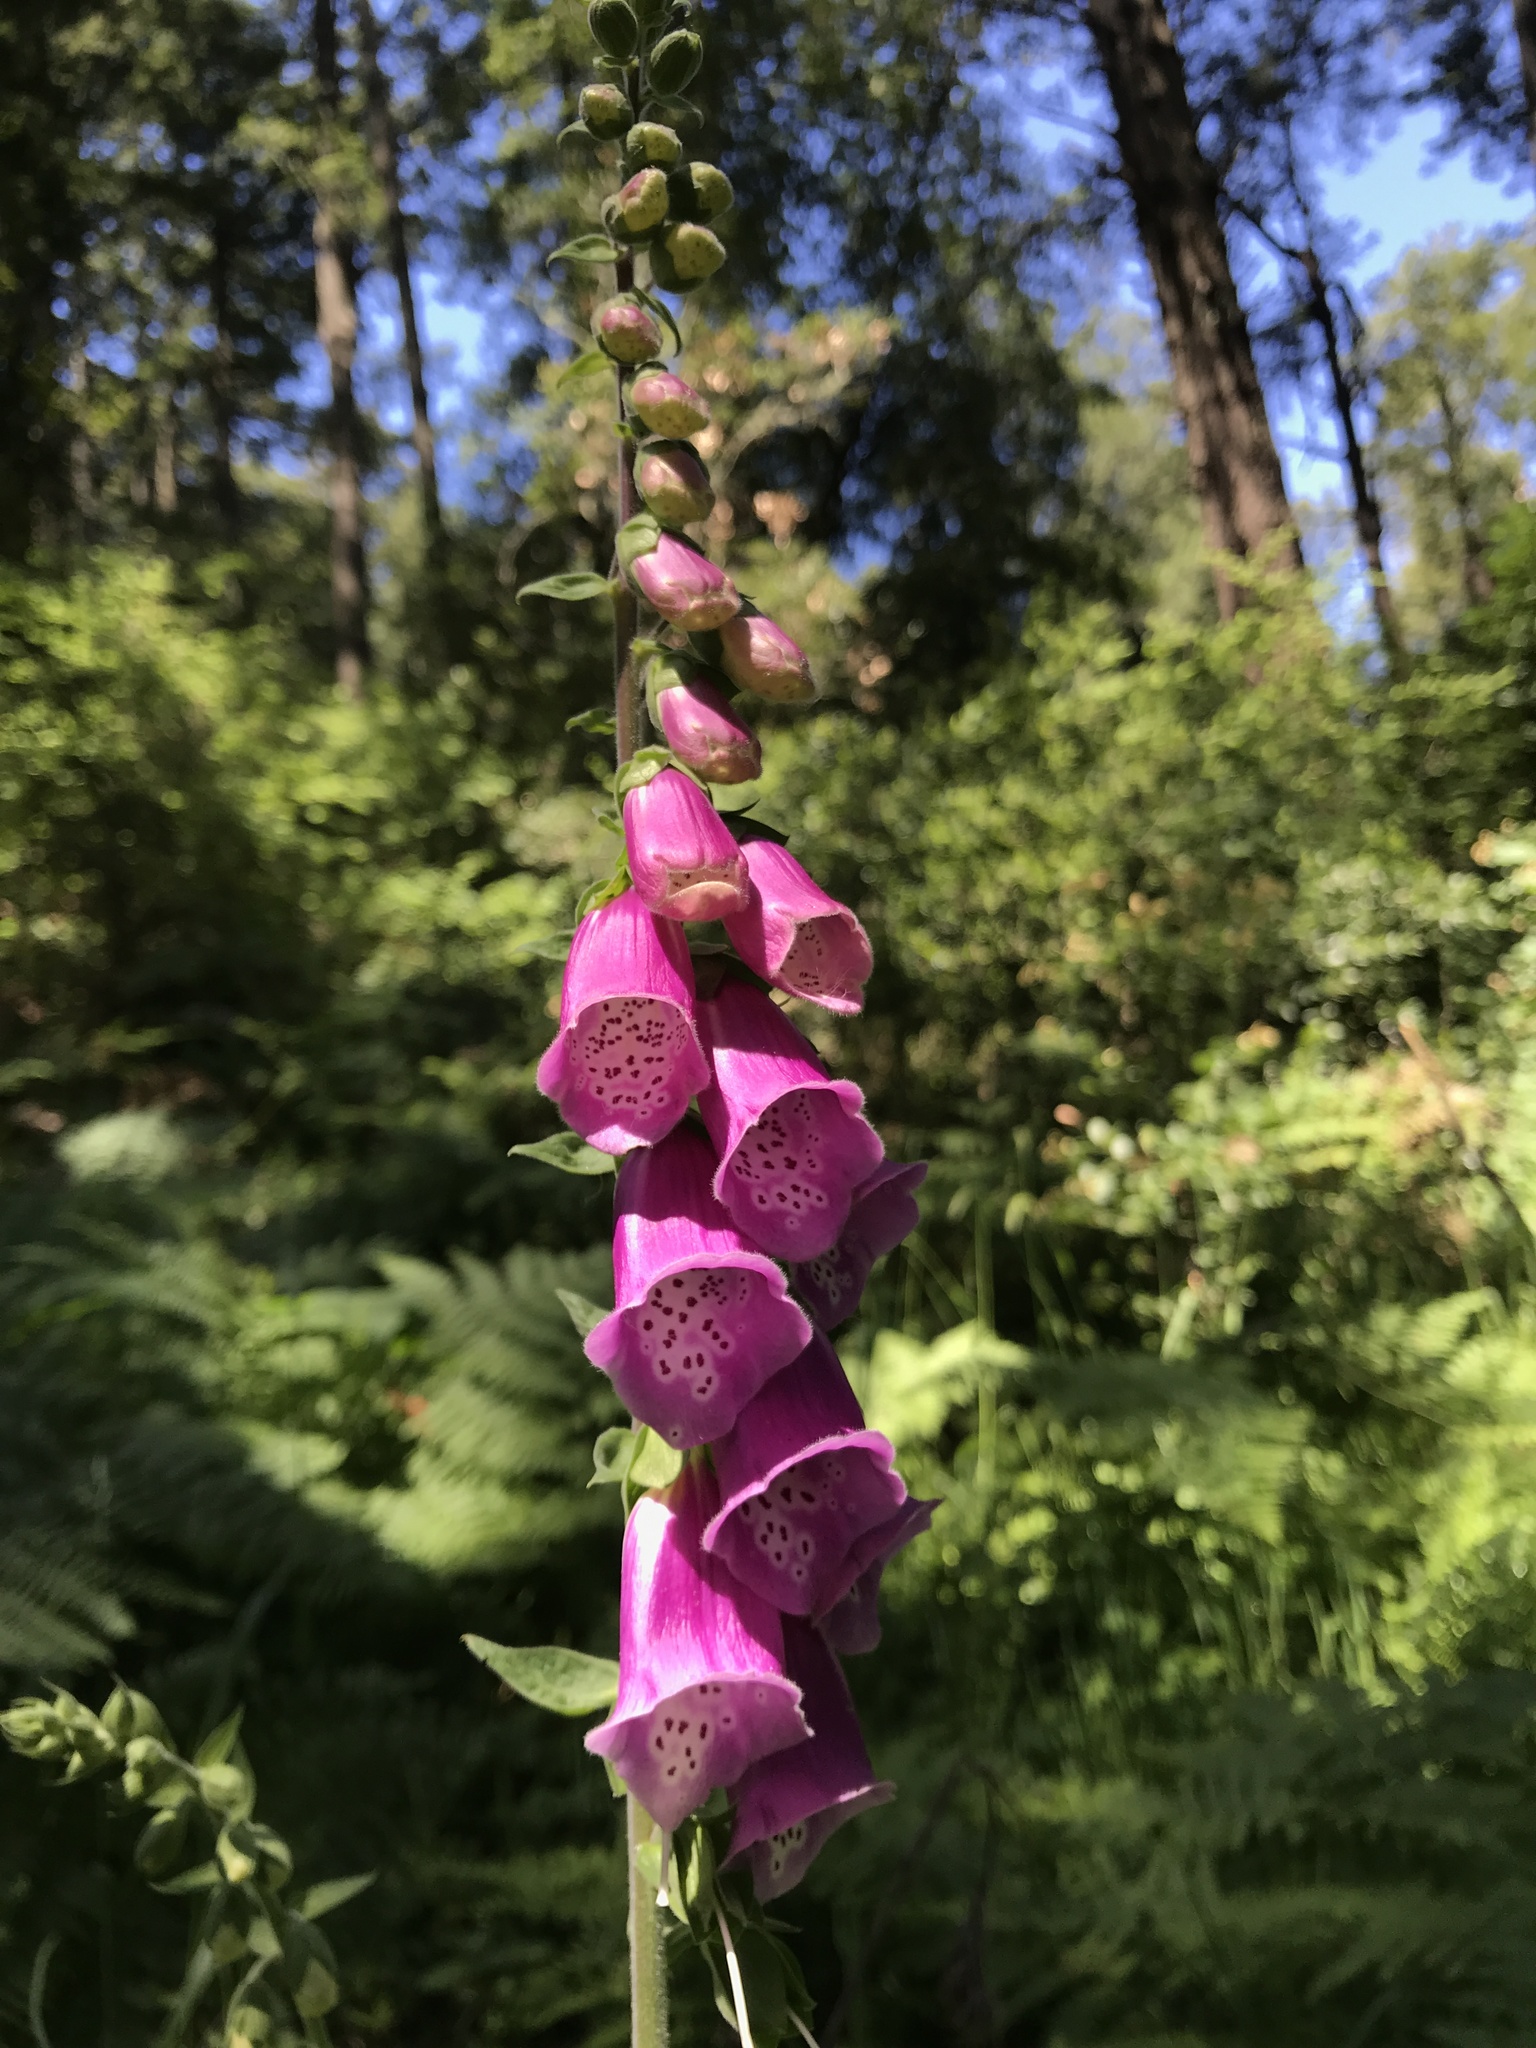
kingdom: Plantae
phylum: Tracheophyta
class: Magnoliopsida
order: Lamiales
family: Plantaginaceae
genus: Digitalis
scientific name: Digitalis purpurea
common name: Foxglove
